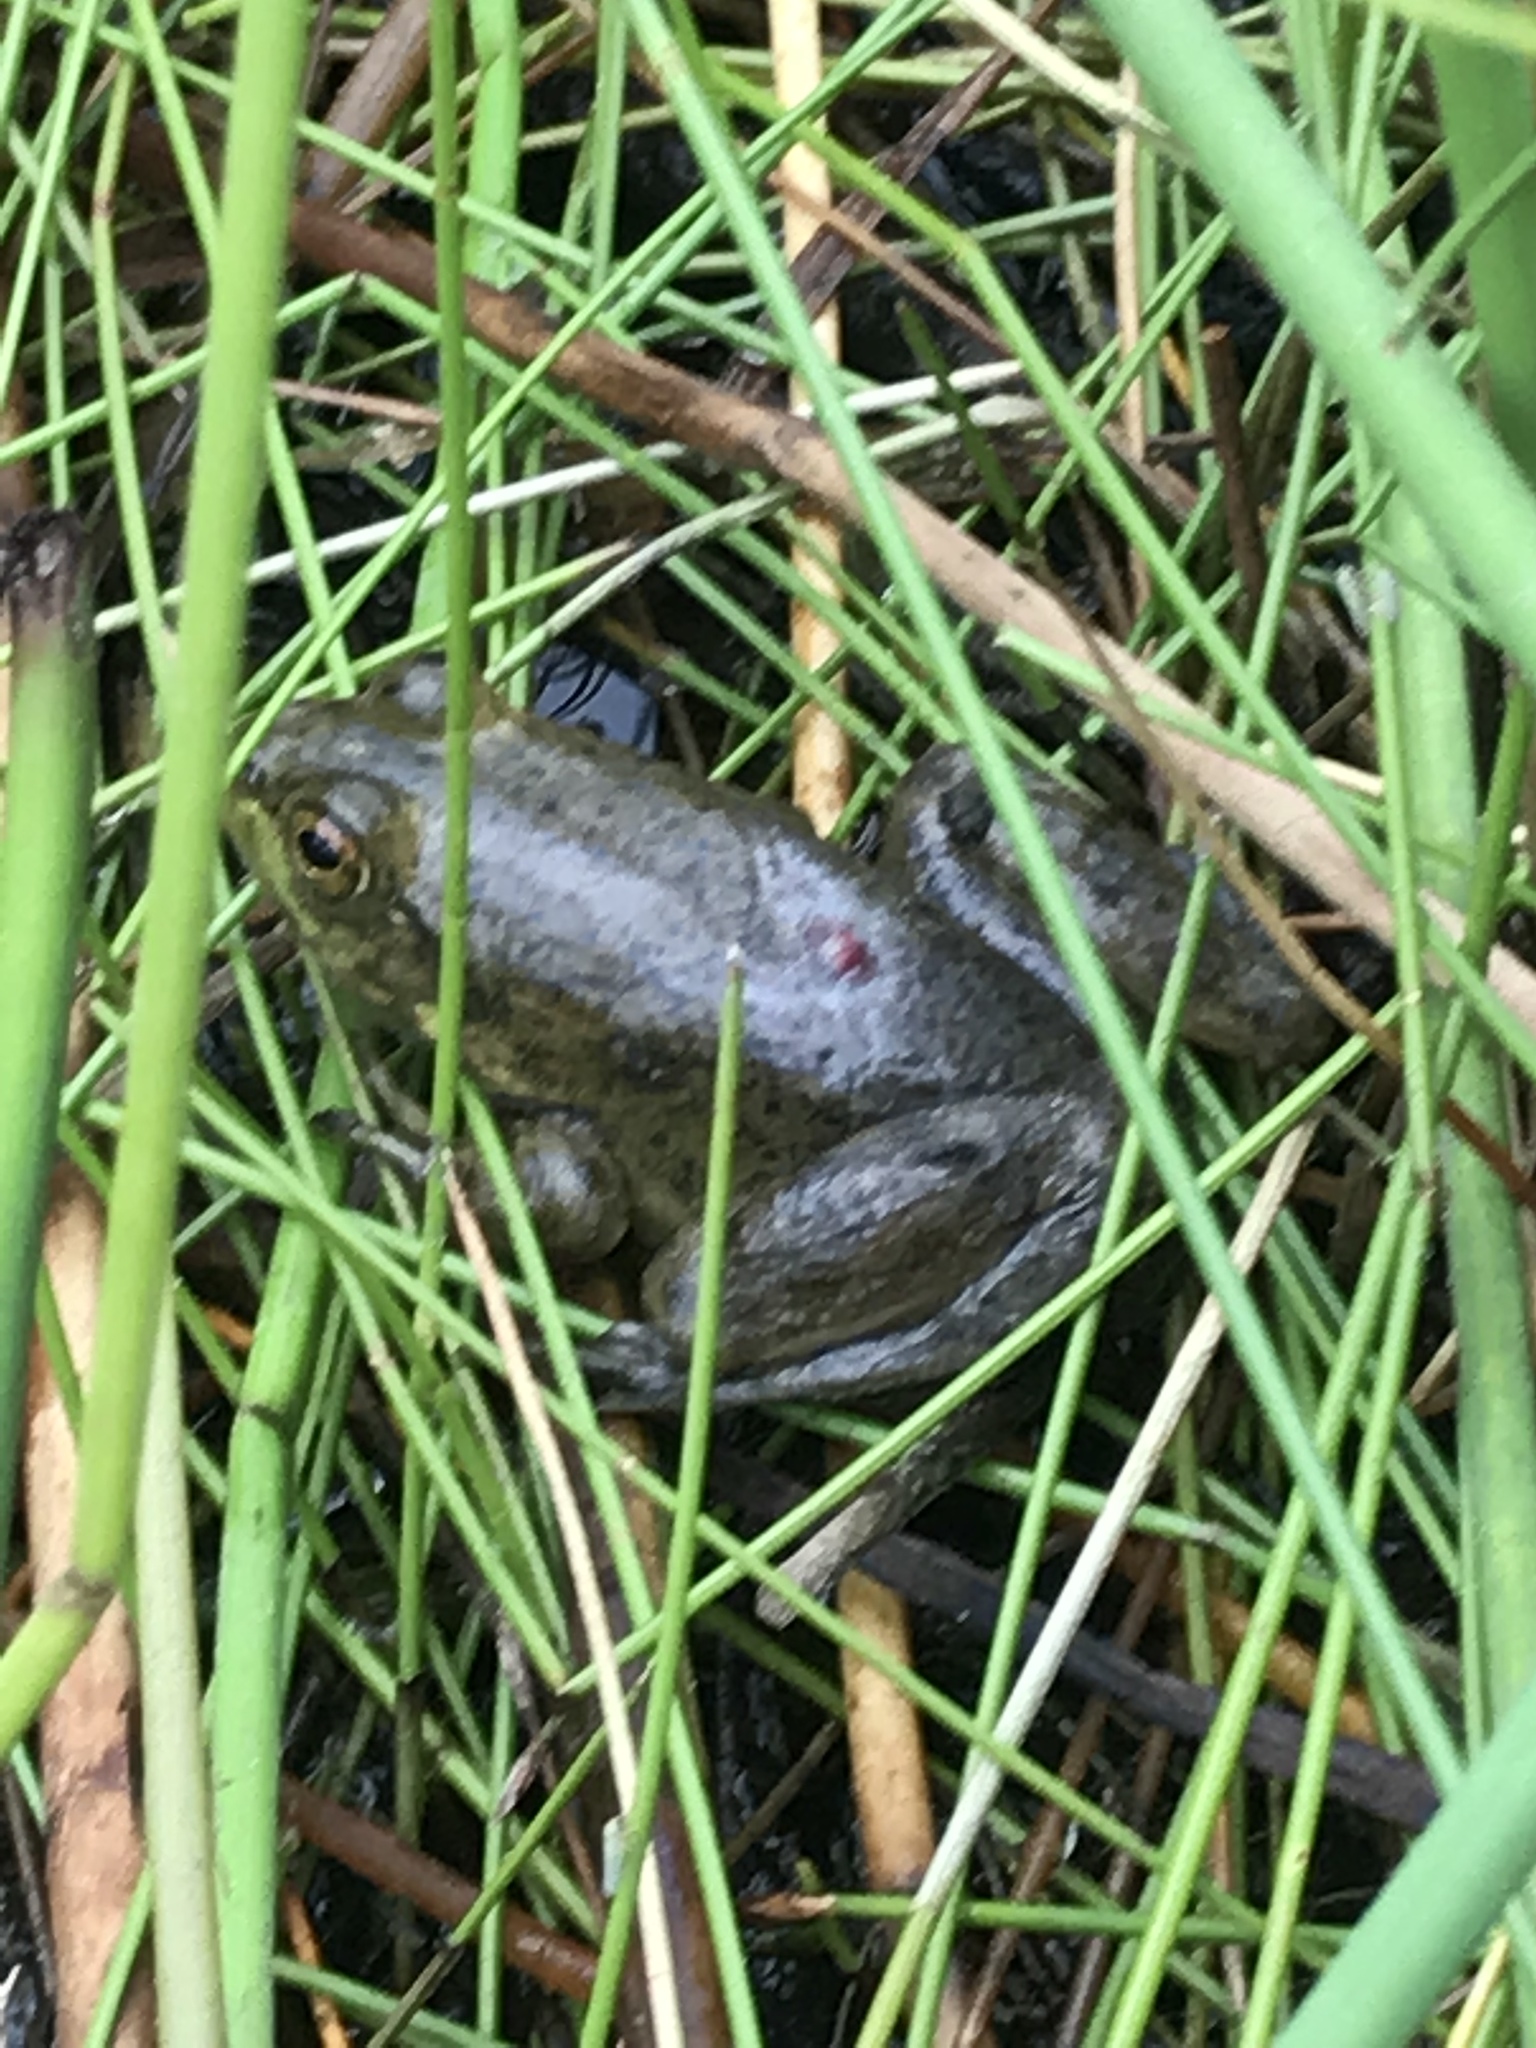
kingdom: Animalia
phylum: Chordata
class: Amphibia
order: Anura
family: Ranidae
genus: Lithobates
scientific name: Lithobates catesbeianus
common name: American bullfrog
